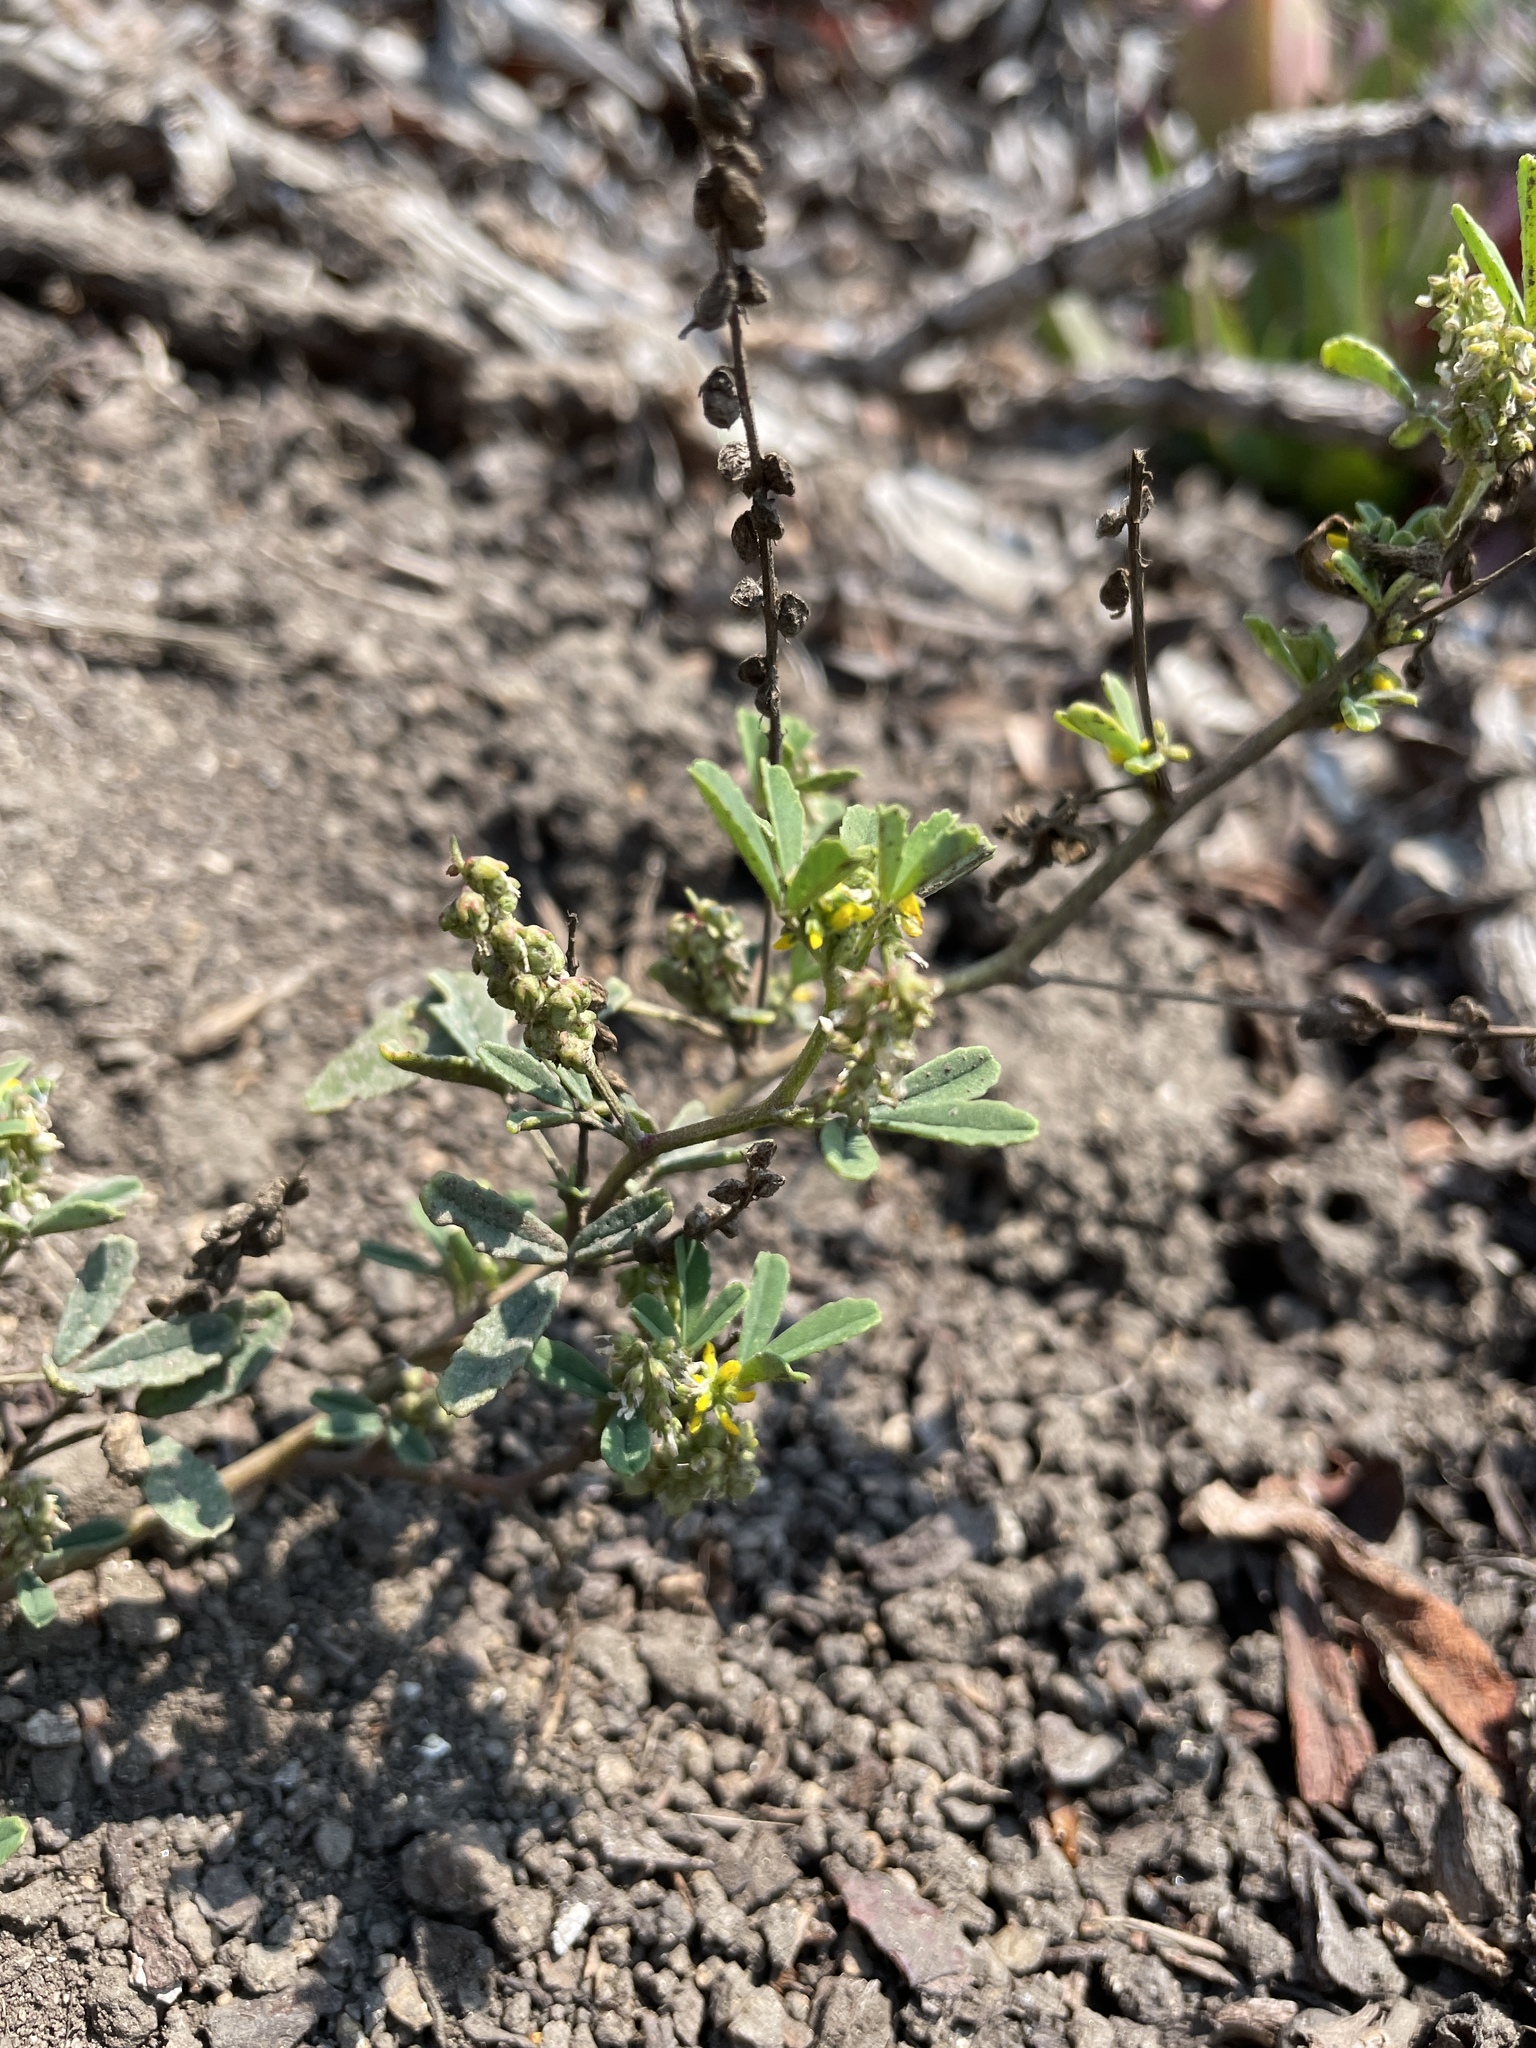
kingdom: Plantae
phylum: Tracheophyta
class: Magnoliopsida
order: Fabales
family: Fabaceae
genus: Melilotus
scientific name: Melilotus indicus
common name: Small melilot
